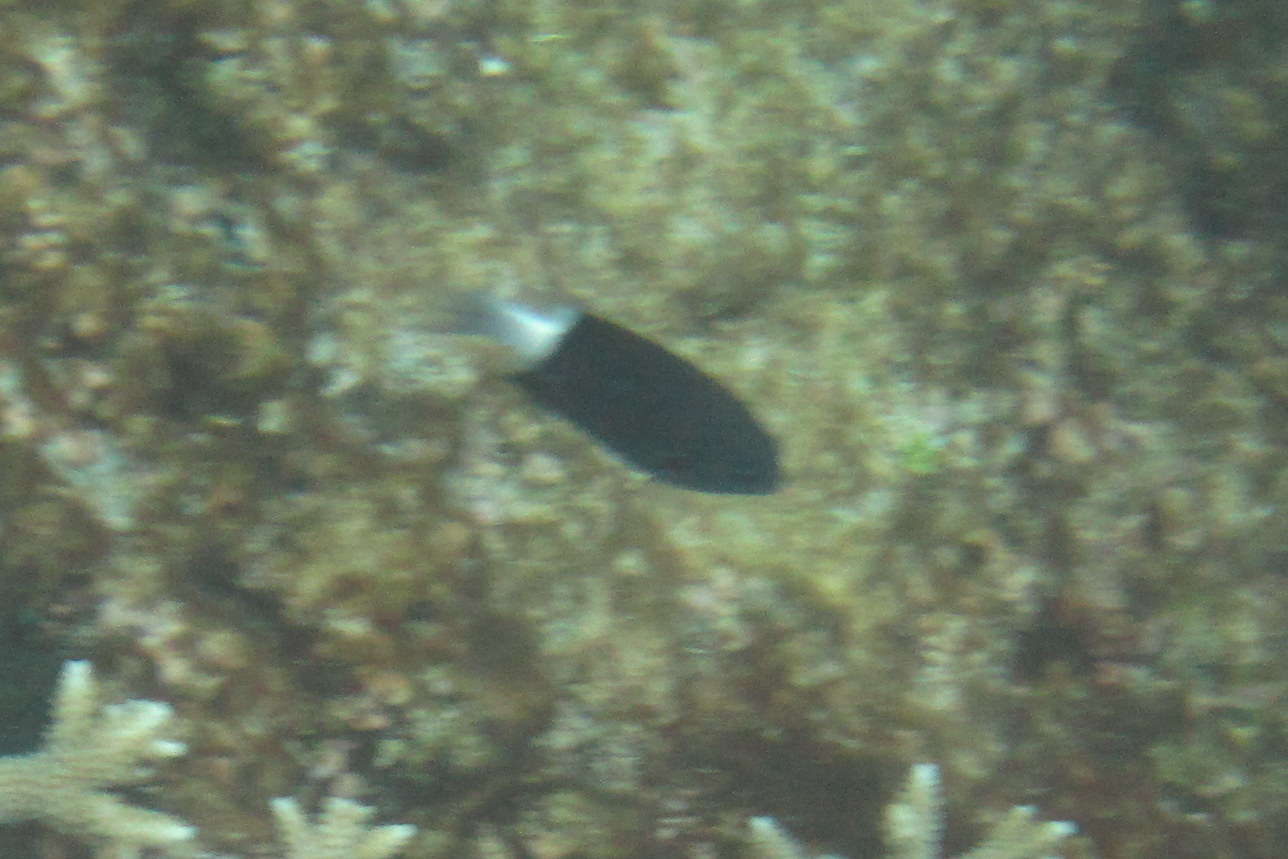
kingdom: Animalia
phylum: Chordata
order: Perciformes
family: Pomacentridae
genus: Pycnochromis
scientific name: Pycnochromis margaritifer
